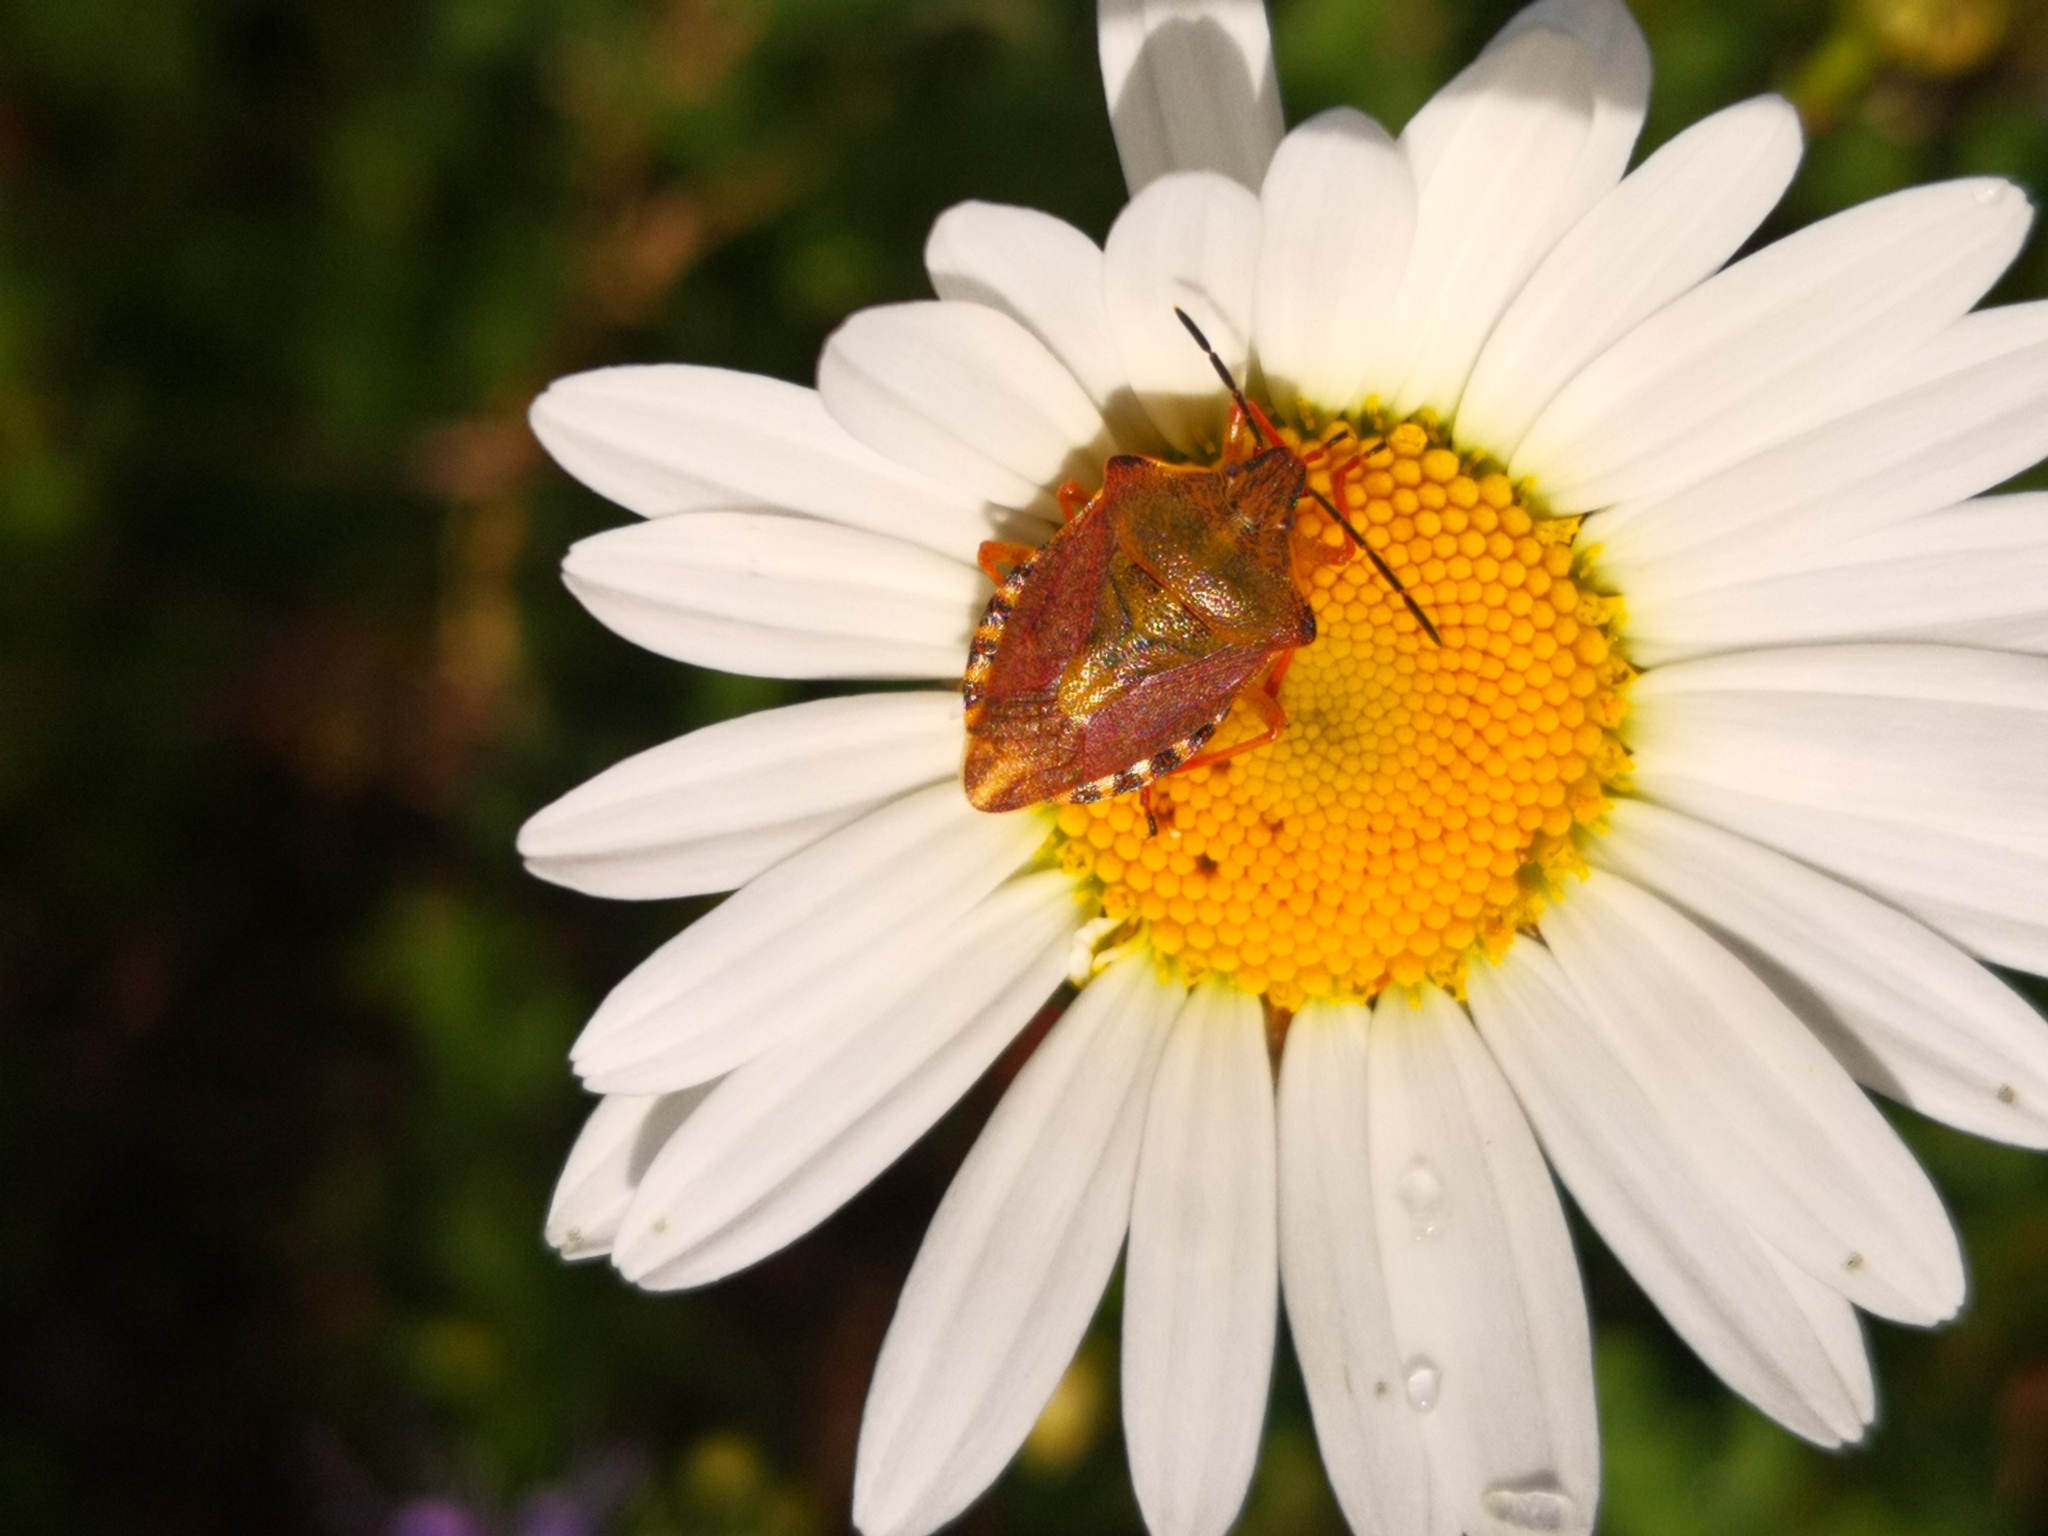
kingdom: Animalia
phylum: Arthropoda
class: Insecta
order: Hemiptera
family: Pentatomidae
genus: Carpocoris
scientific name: Carpocoris purpureipennis
